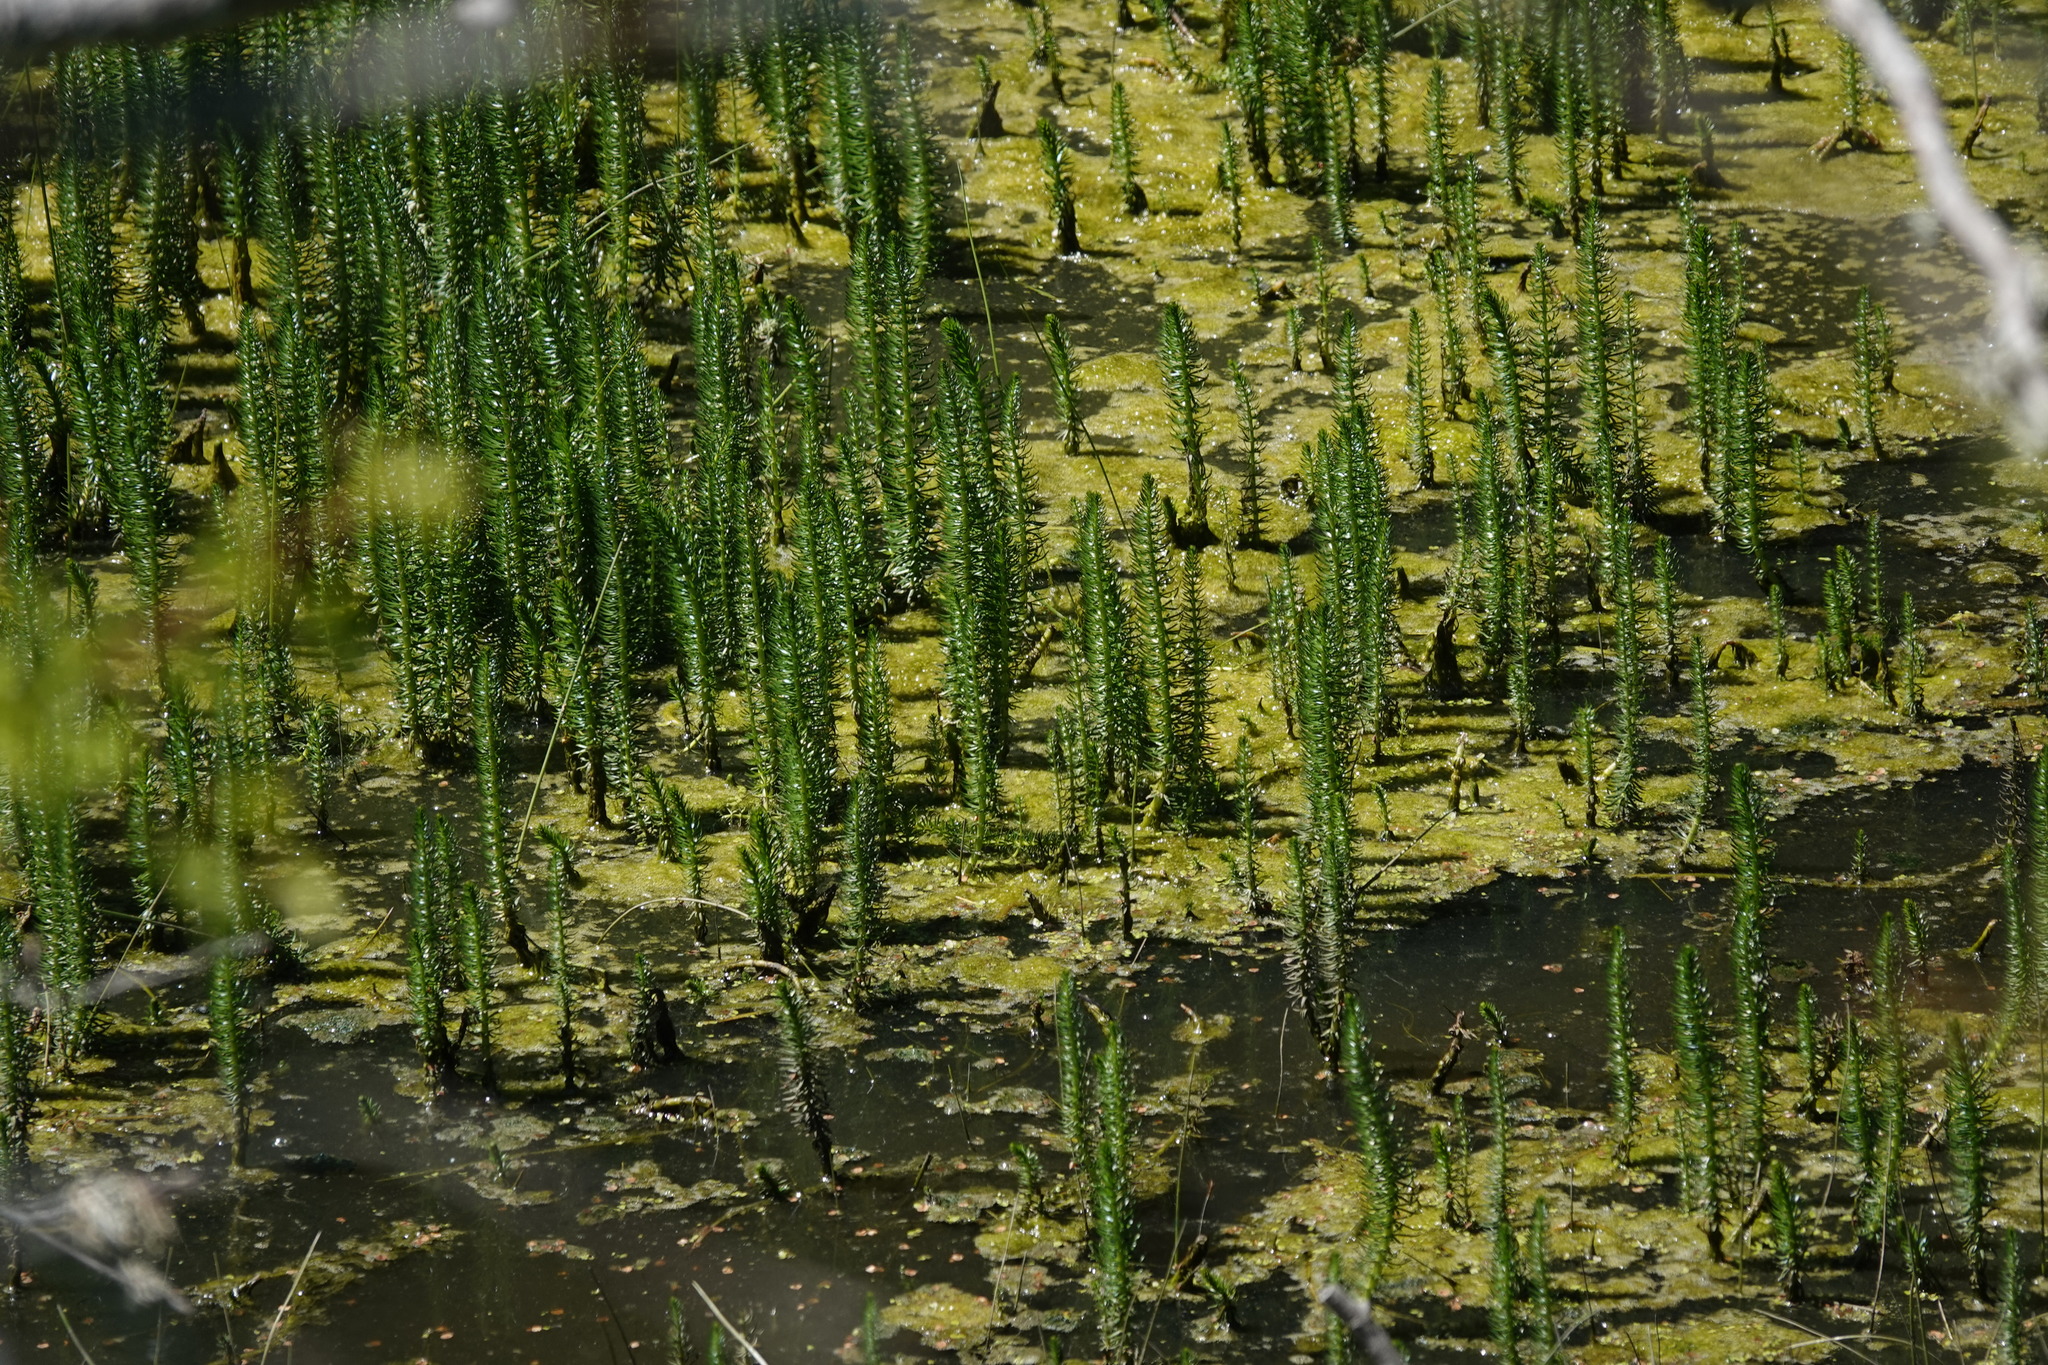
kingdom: Plantae
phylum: Tracheophyta
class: Magnoliopsida
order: Lamiales
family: Plantaginaceae
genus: Hippuris
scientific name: Hippuris vulgaris
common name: Mare's-tail
